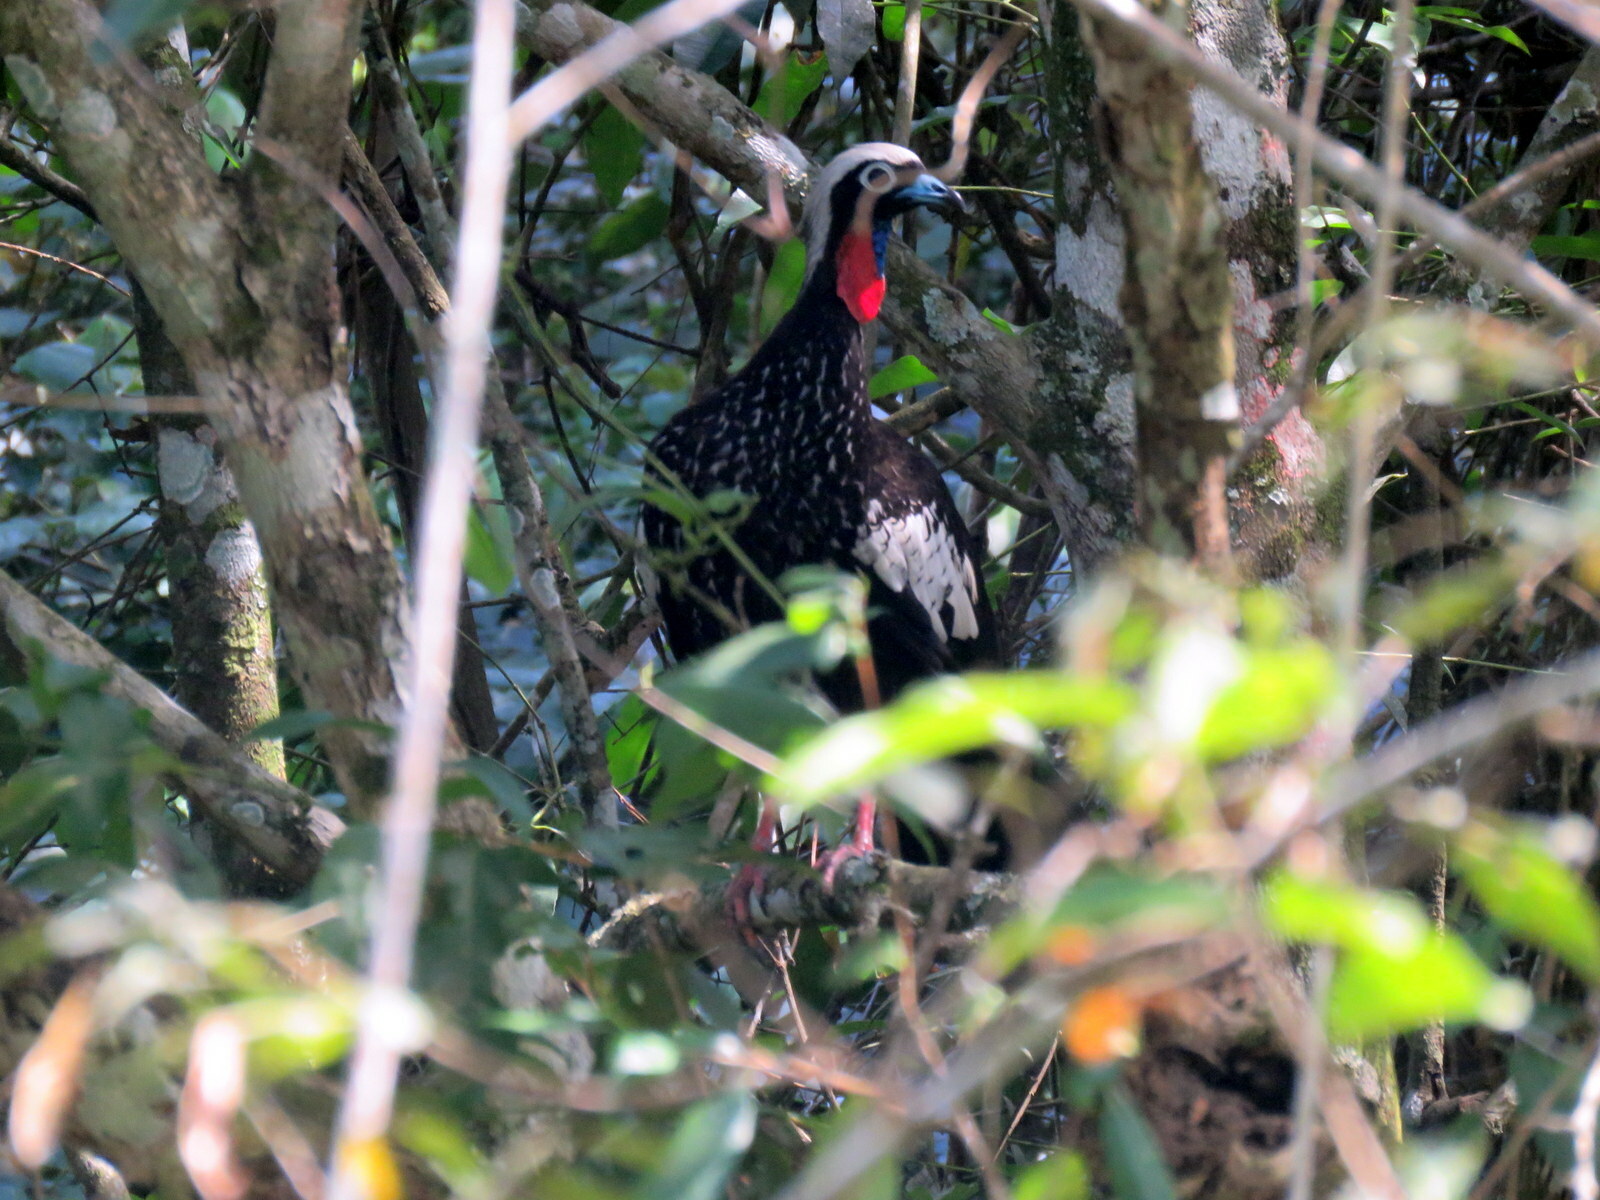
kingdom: Animalia
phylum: Chordata
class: Aves
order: Galliformes
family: Cracidae
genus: Pipile
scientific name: Pipile jacutinga
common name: Black-fronted piping-guan
